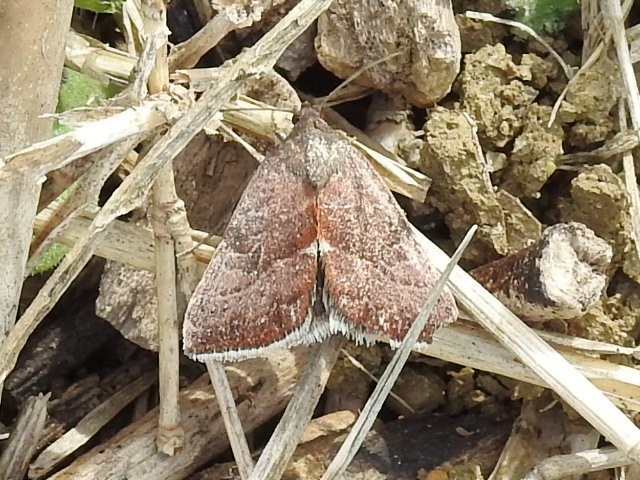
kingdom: Animalia
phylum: Arthropoda
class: Insecta
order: Lepidoptera
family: Noctuidae
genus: Galgula
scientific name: Galgula partita
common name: Wedgeling
